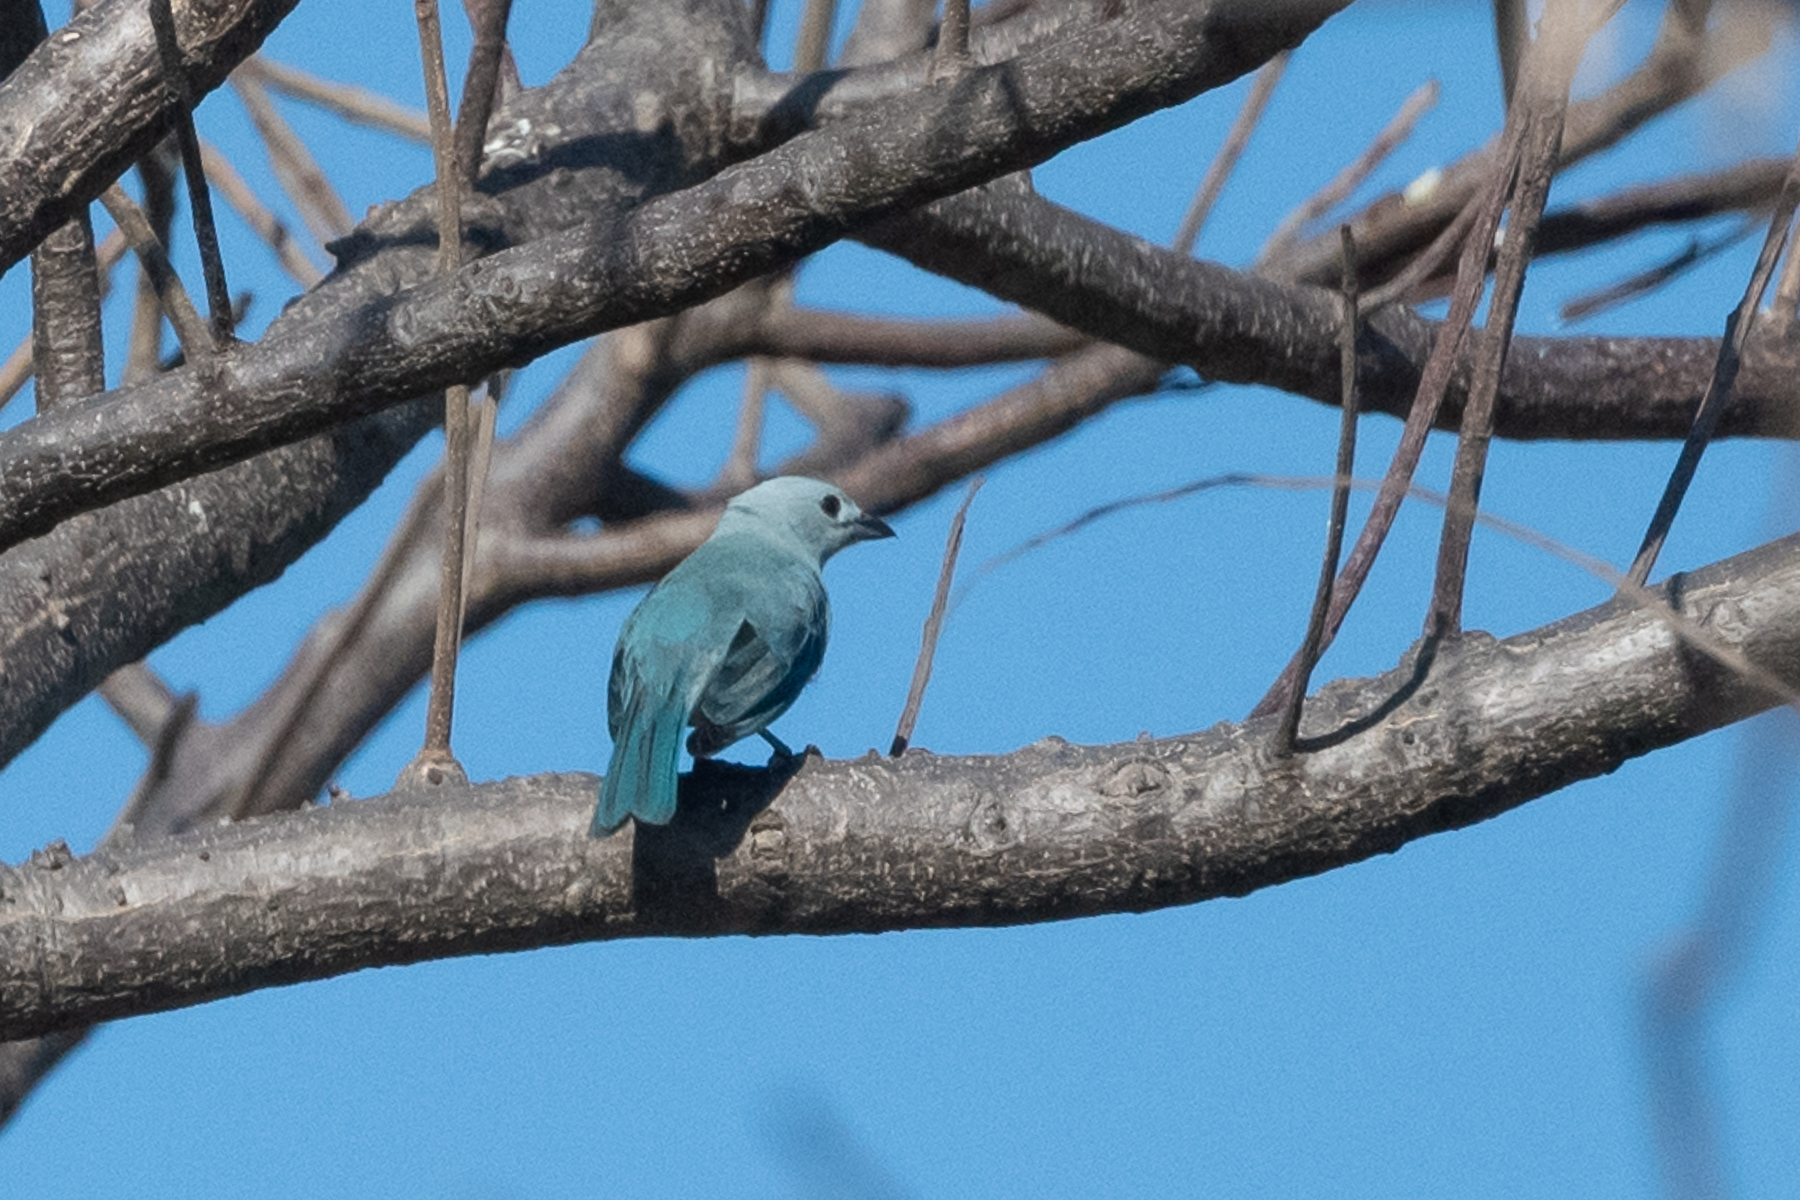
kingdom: Animalia
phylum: Chordata
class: Aves
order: Passeriformes
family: Thraupidae
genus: Thraupis
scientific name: Thraupis episcopus
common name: Blue-grey tanager
